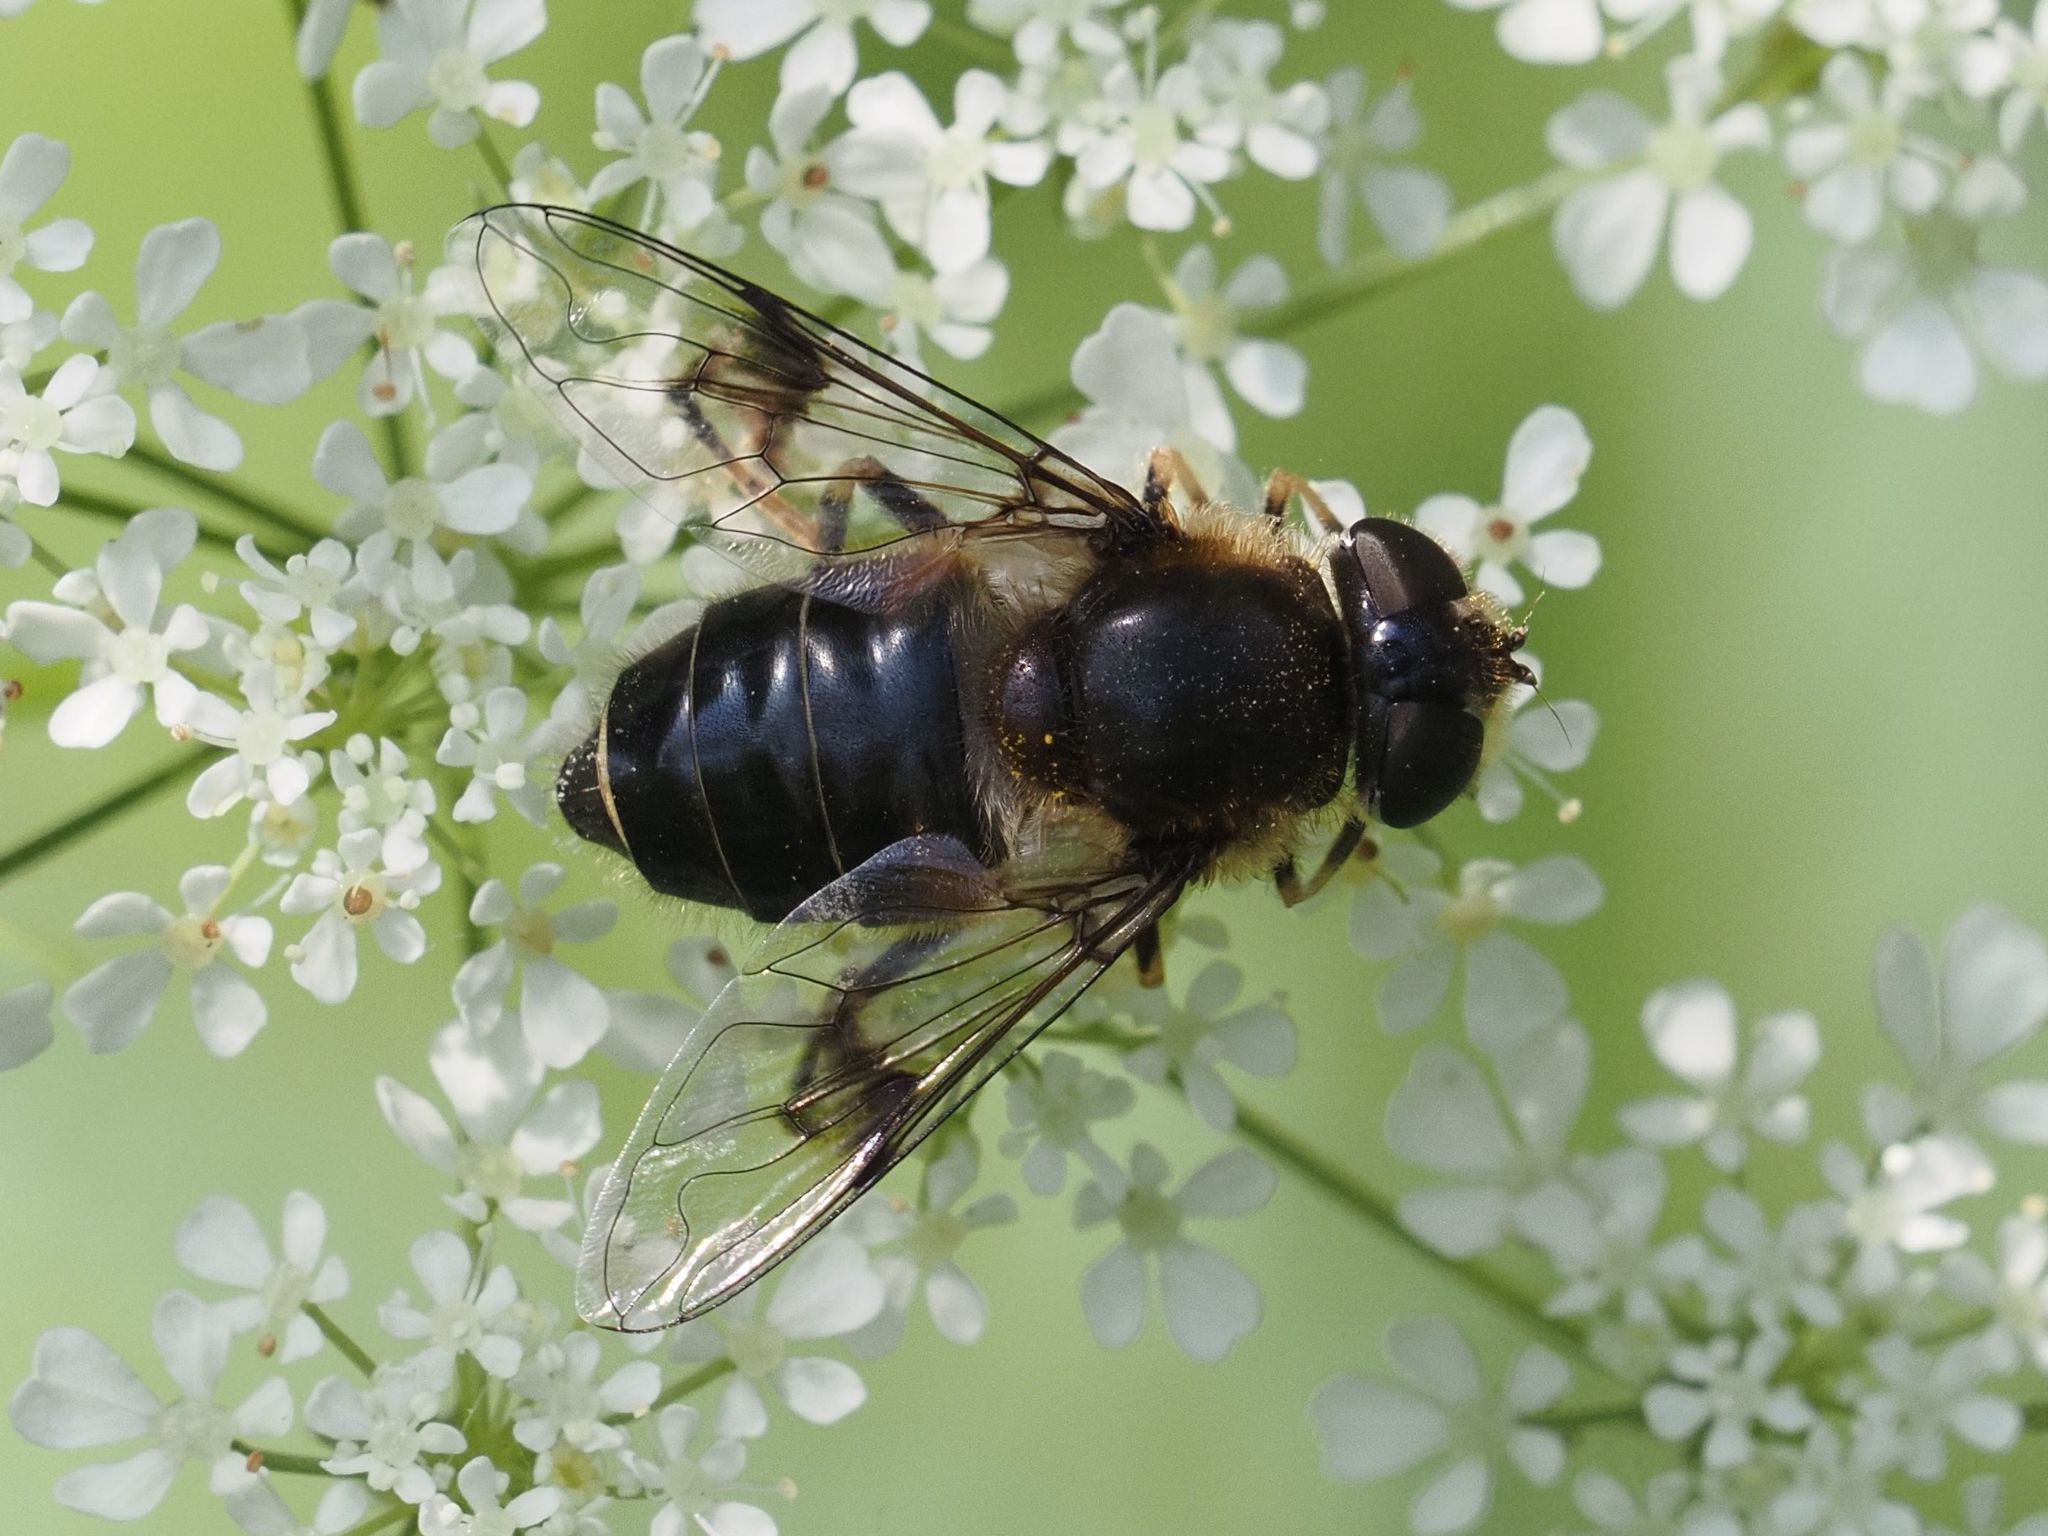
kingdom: Animalia
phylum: Arthropoda
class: Insecta
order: Diptera
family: Syrphidae
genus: Eristalis
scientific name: Eristalis rupium
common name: Hover fly
